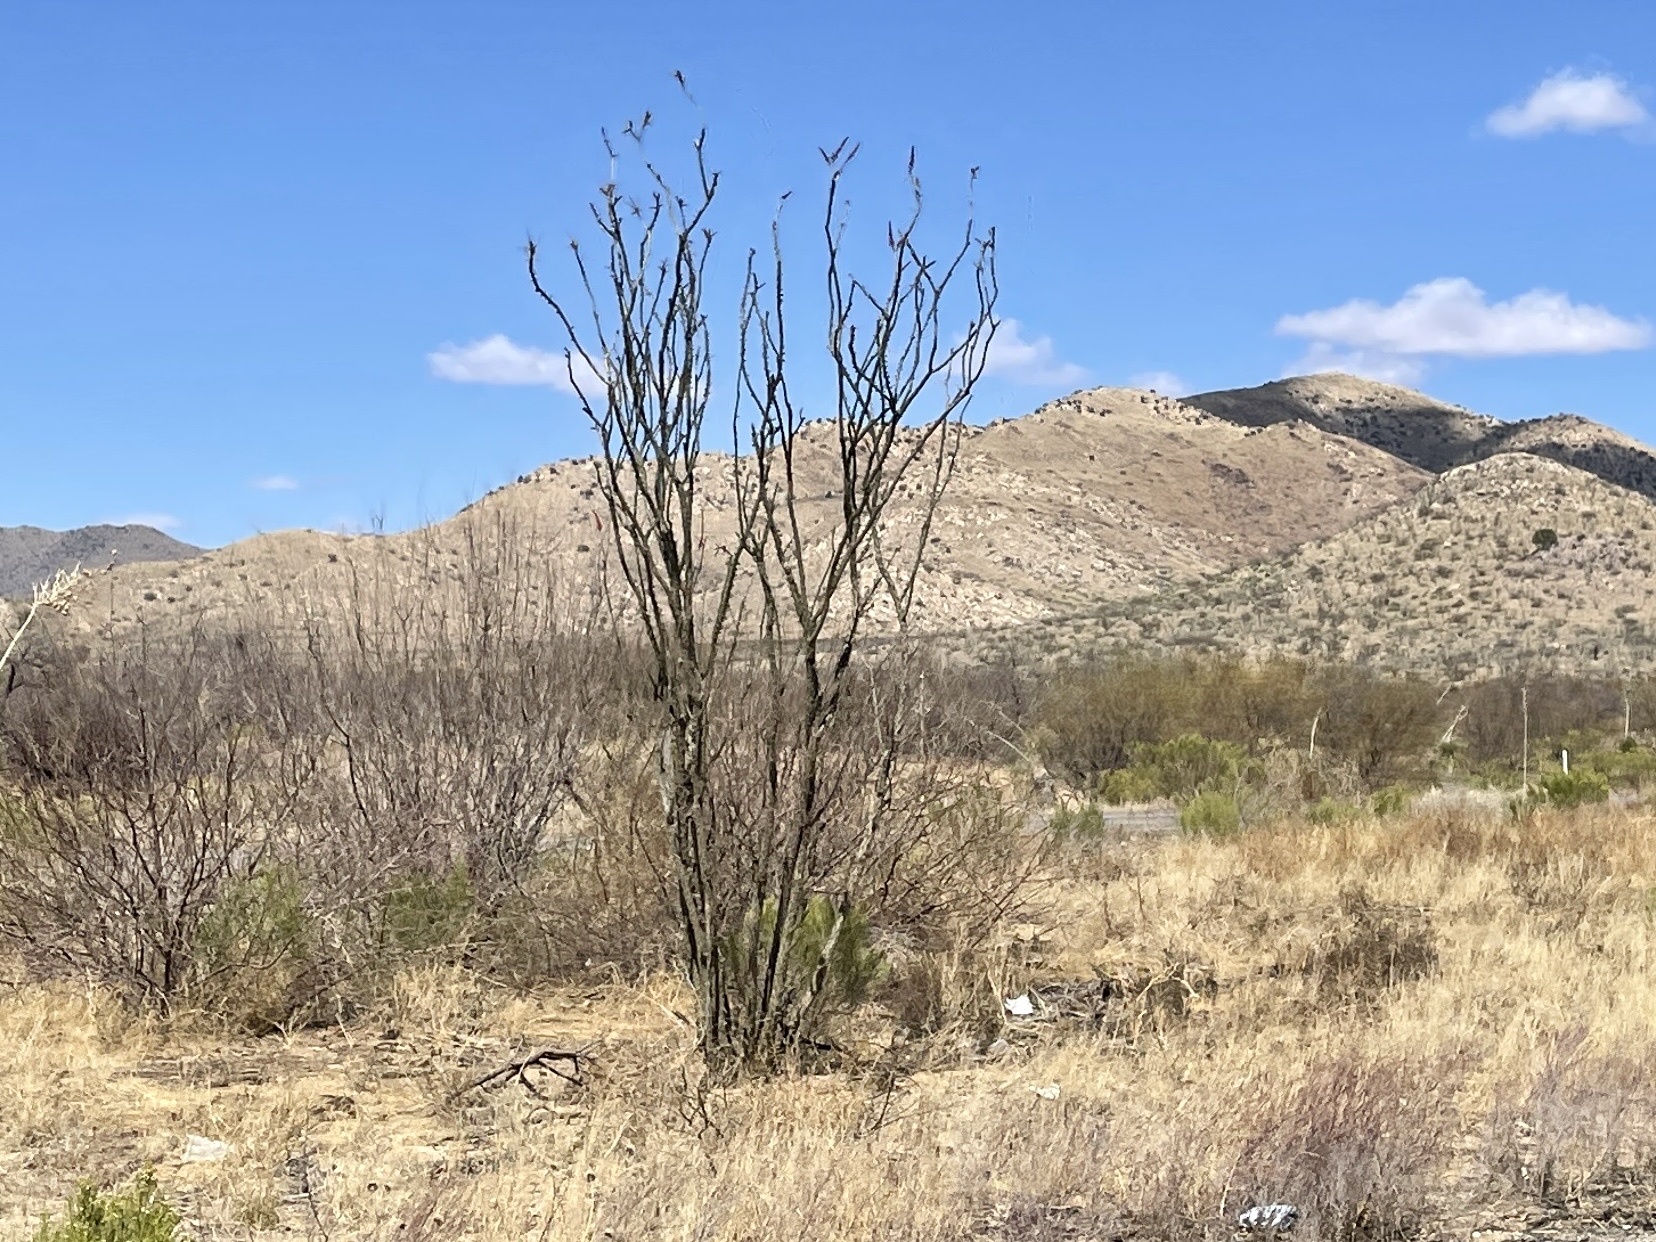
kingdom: Plantae
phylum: Tracheophyta
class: Magnoliopsida
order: Ericales
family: Fouquieriaceae
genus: Fouquieria
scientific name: Fouquieria splendens
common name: Vine-cactus
